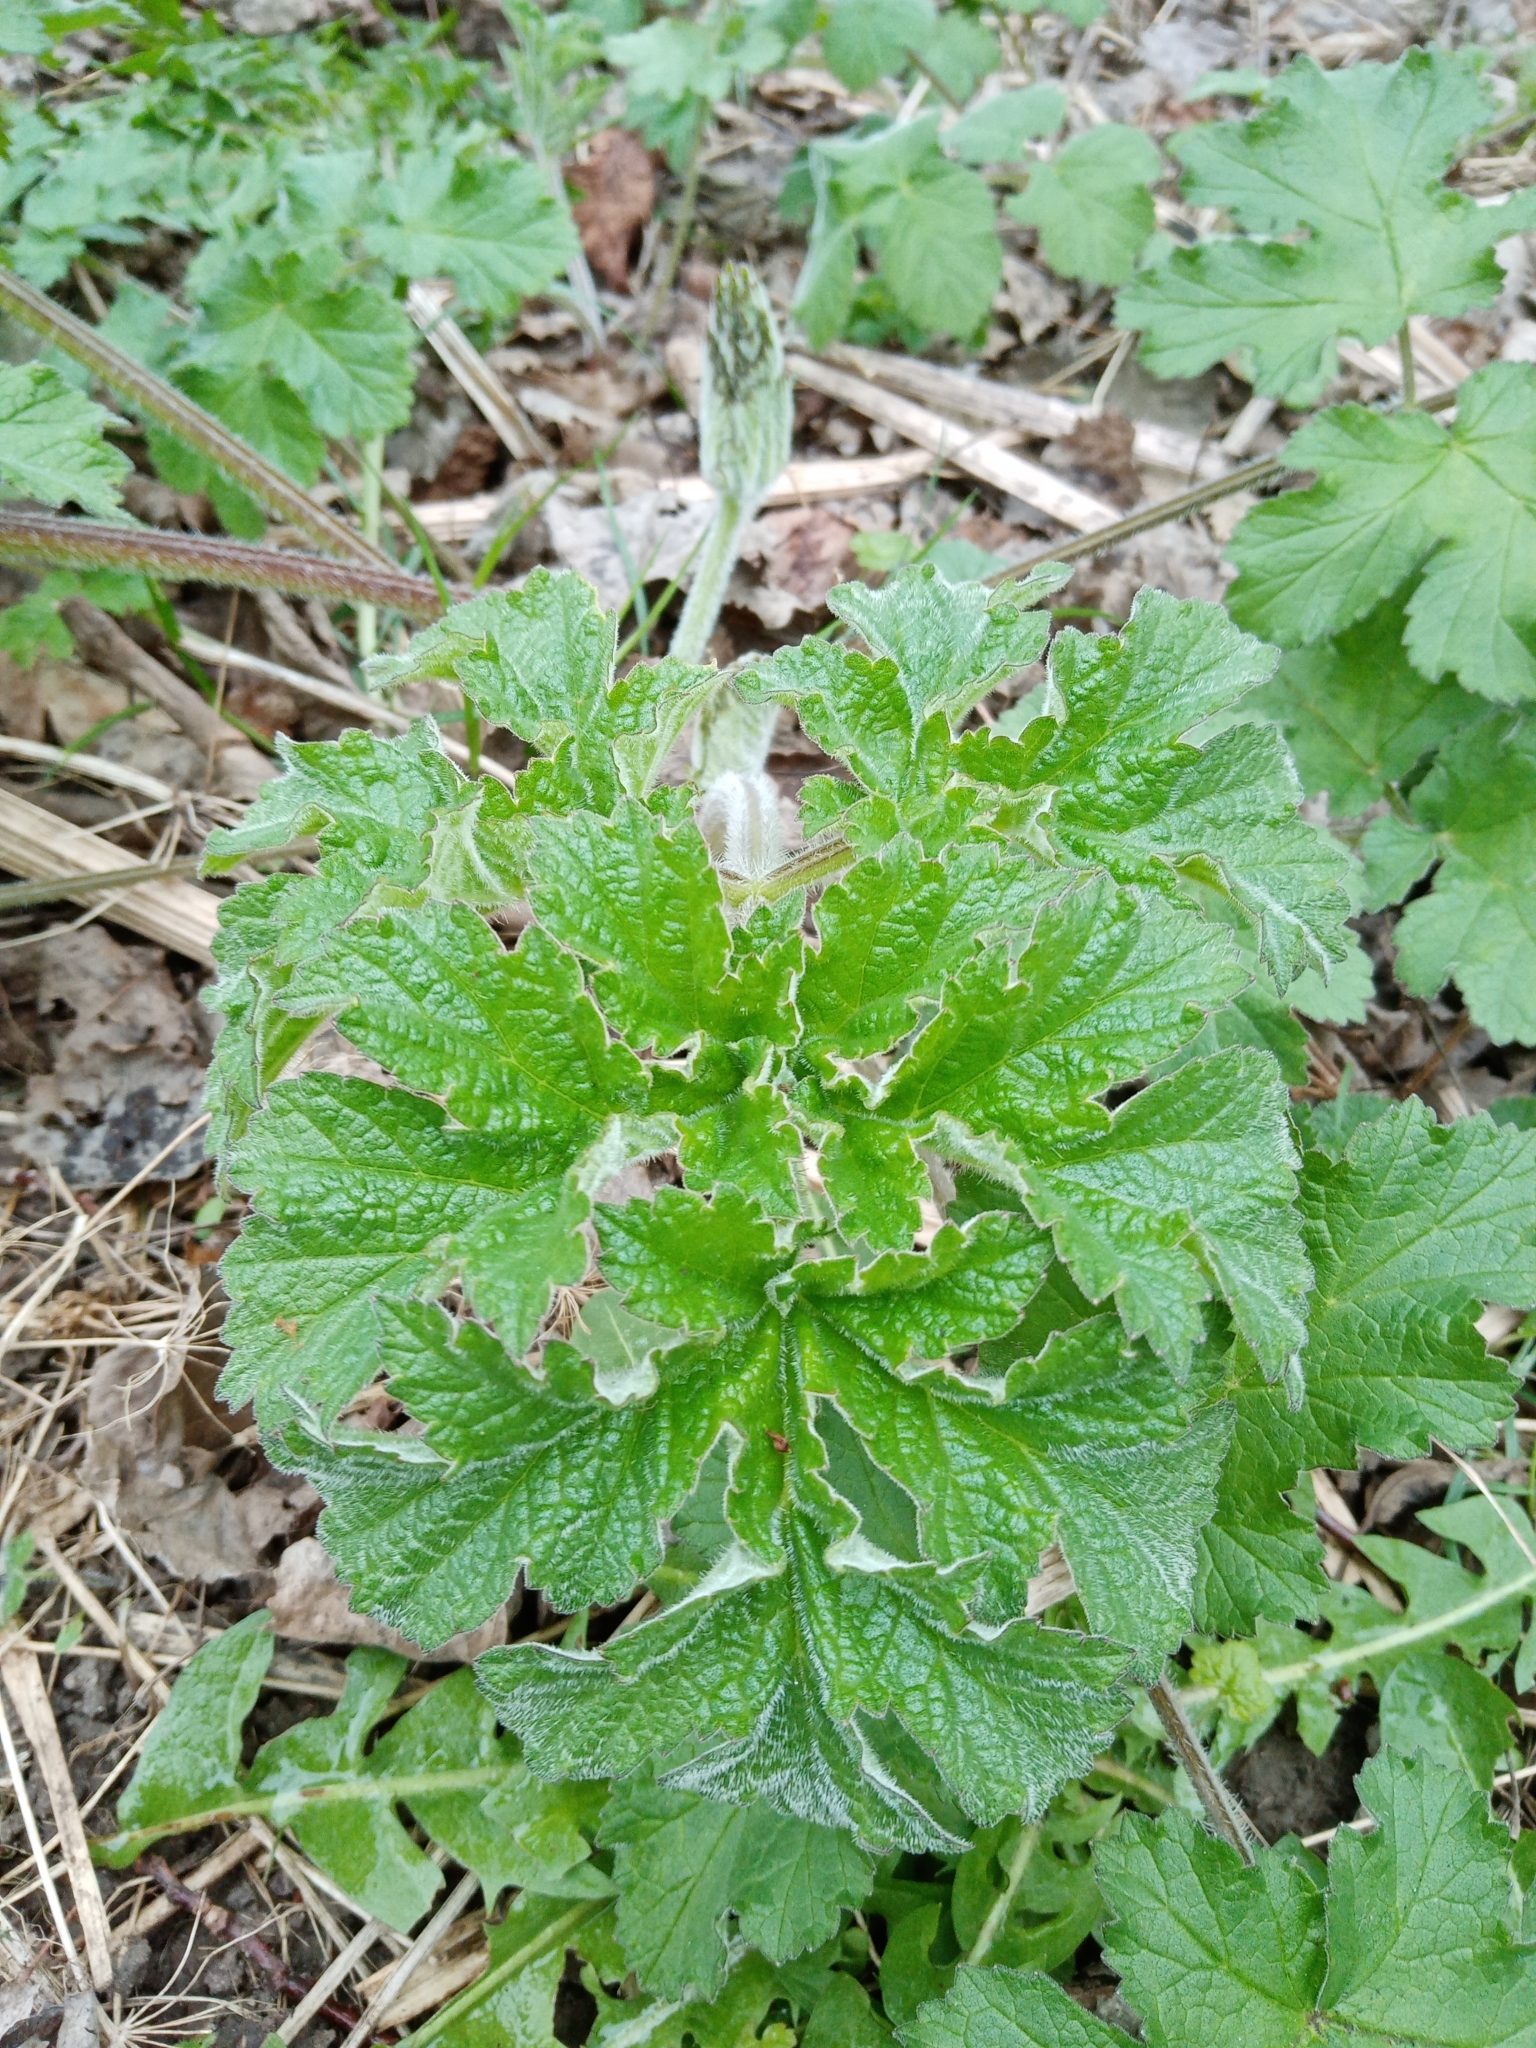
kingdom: Plantae
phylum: Tracheophyta
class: Magnoliopsida
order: Apiales
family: Apiaceae
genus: Heracleum
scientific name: Heracleum sphondylium
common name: Hogweed
